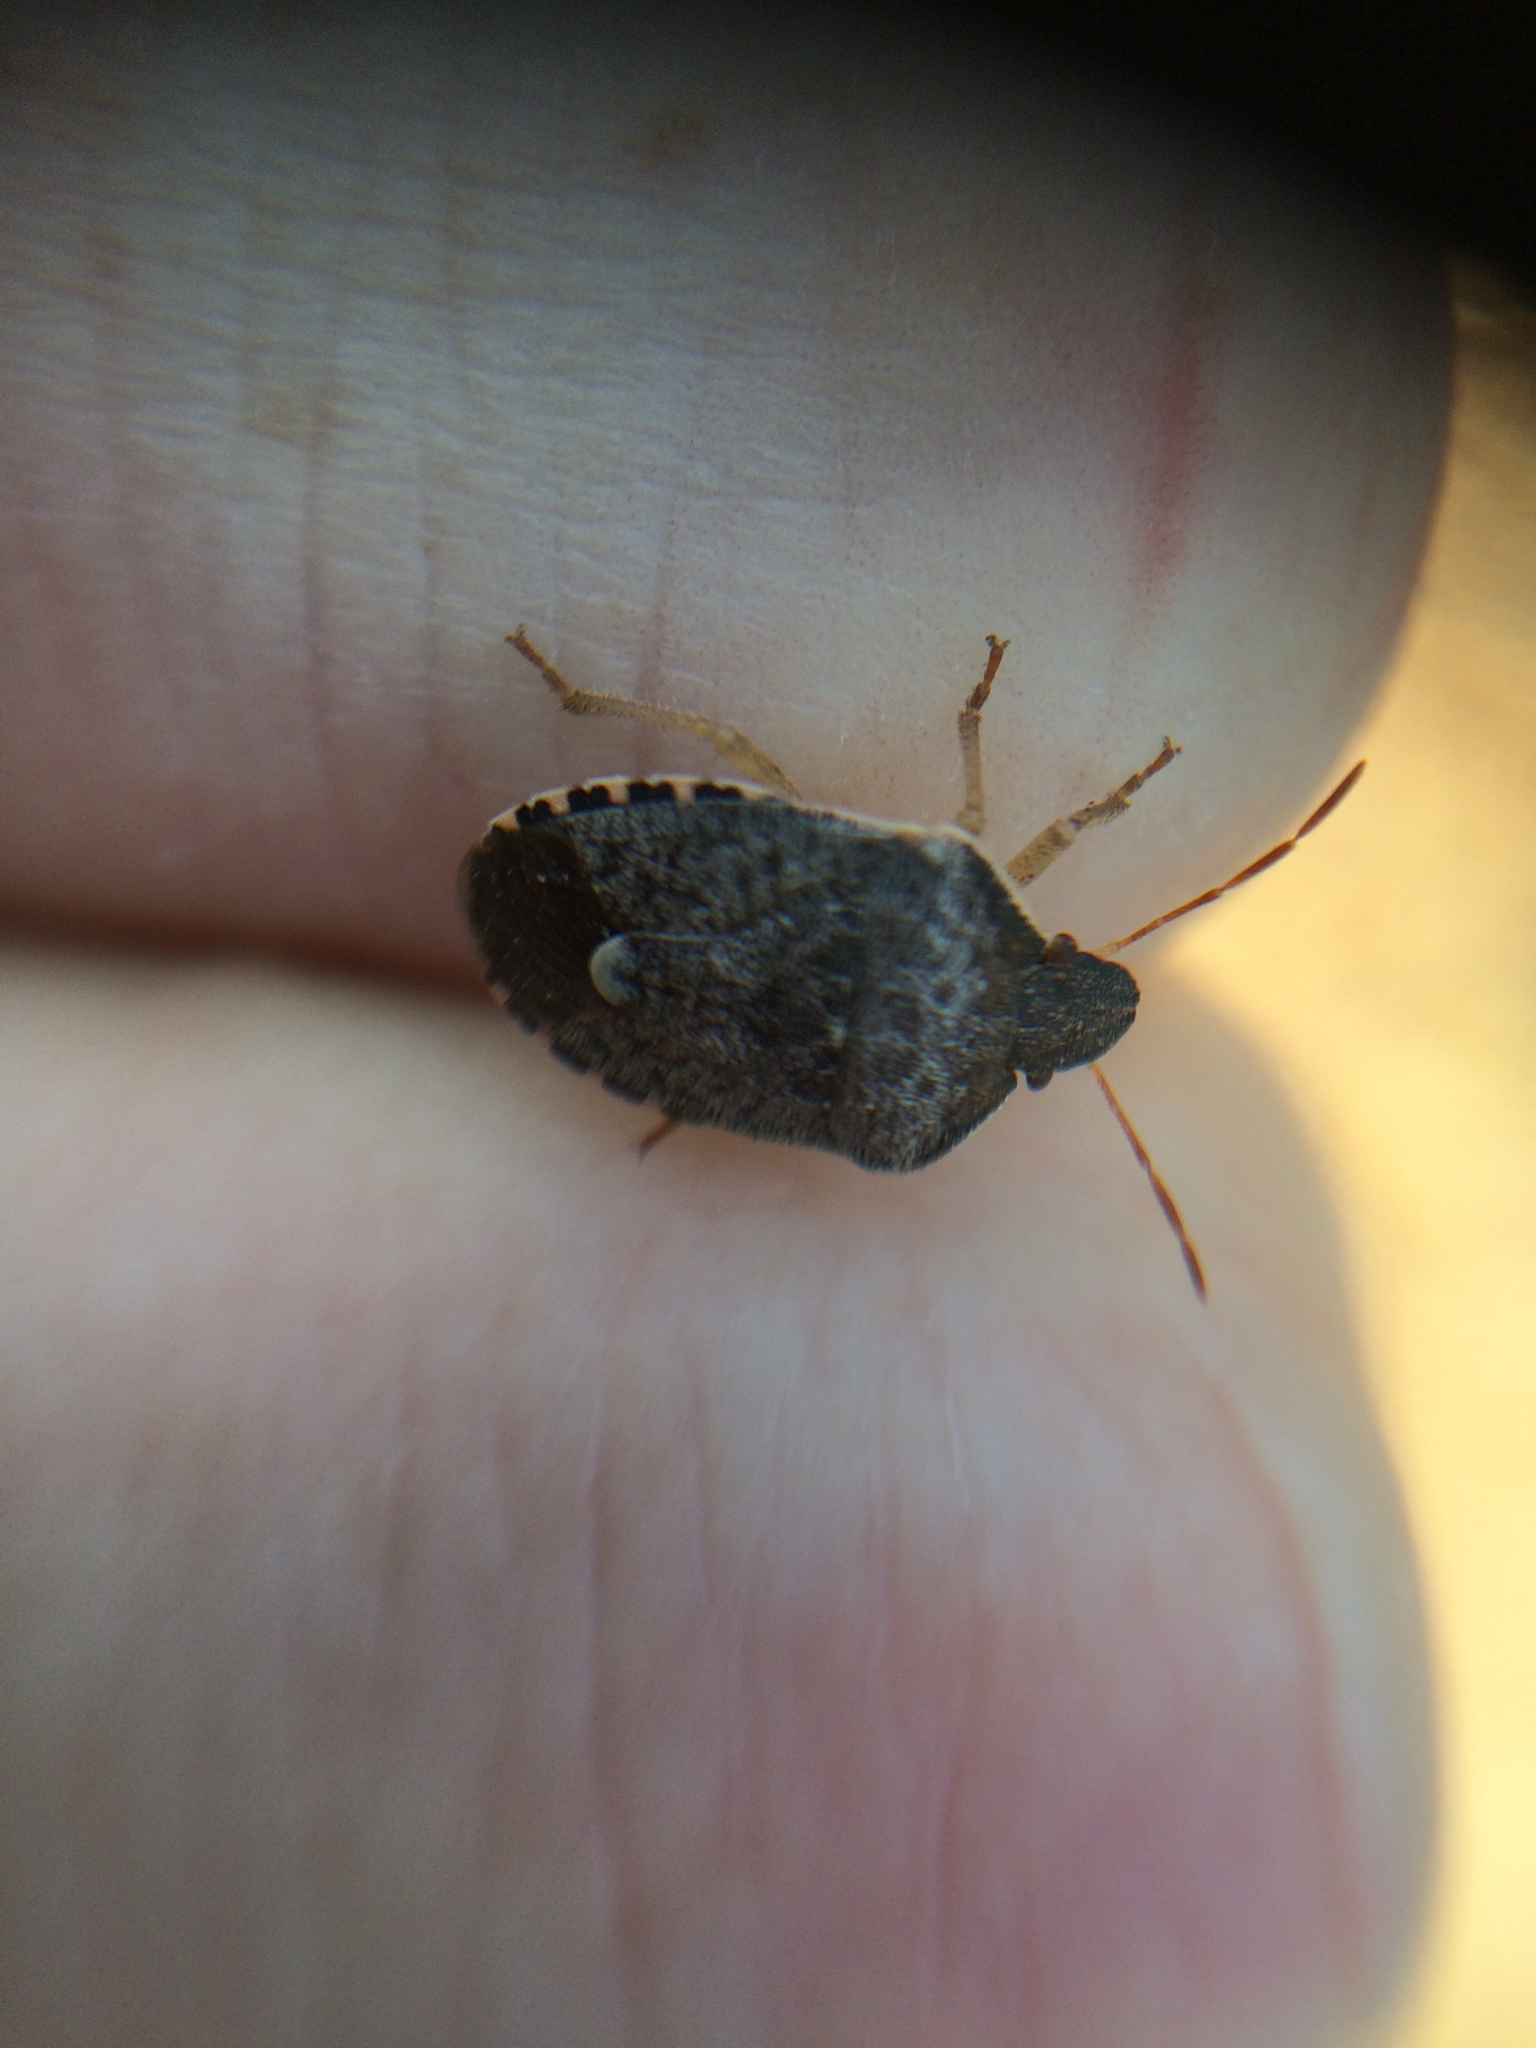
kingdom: Animalia
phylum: Arthropoda
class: Insecta
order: Hemiptera
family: Pentatomidae
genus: Holcostethus
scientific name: Holcostethus abbreviatus
